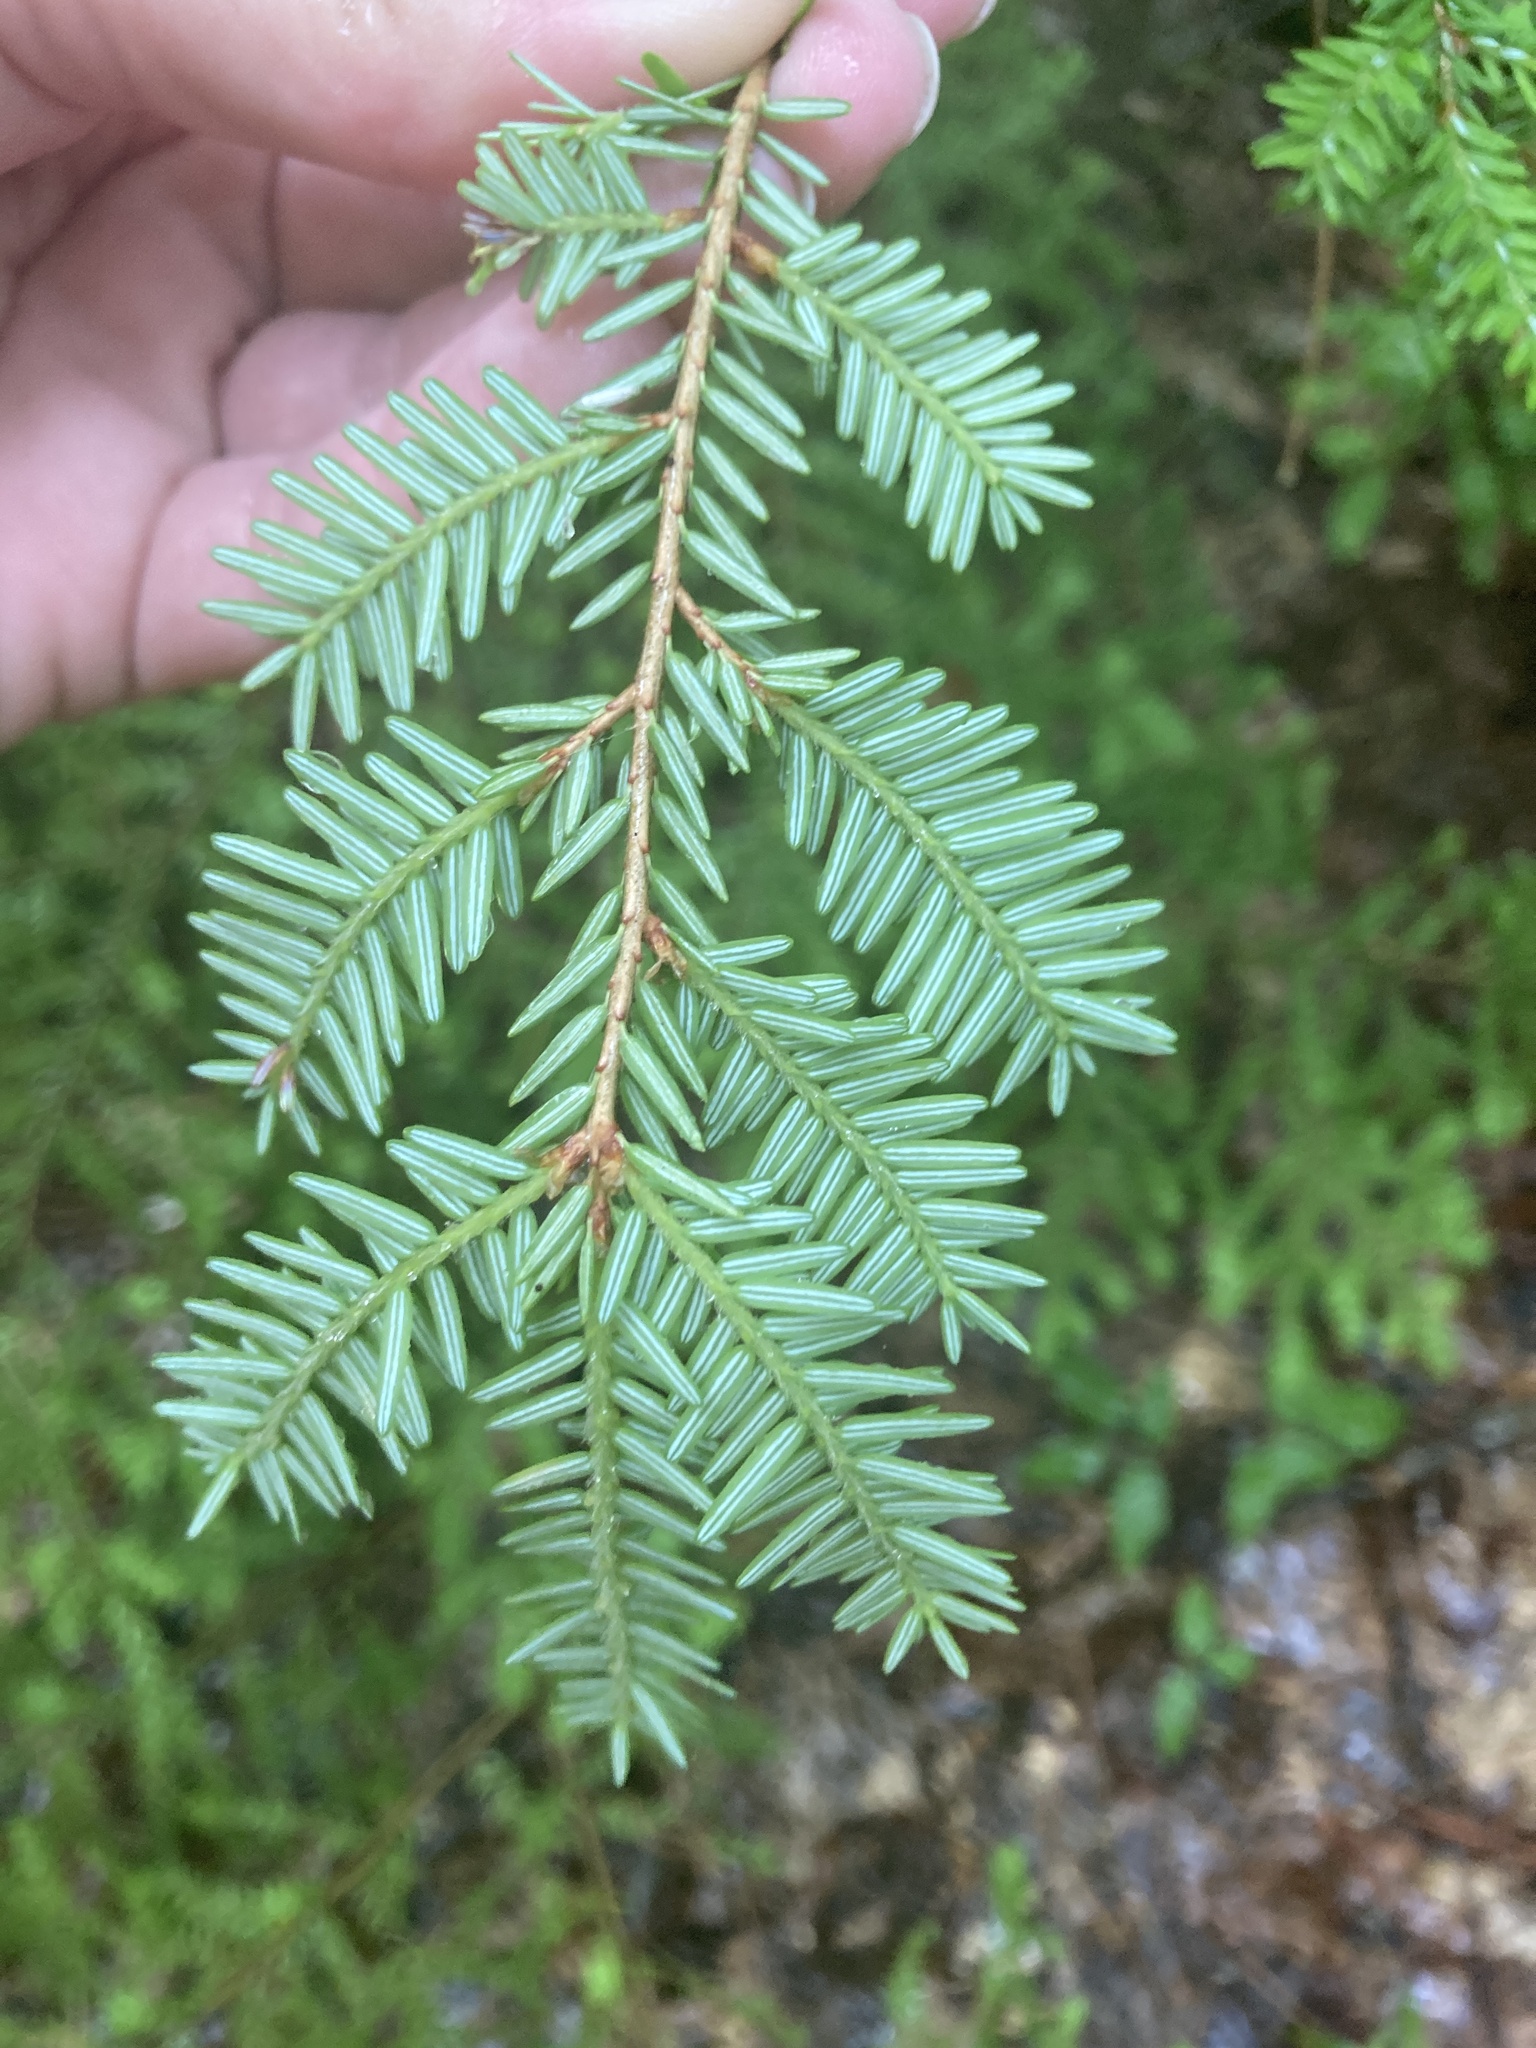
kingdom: Plantae
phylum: Tracheophyta
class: Pinopsida
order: Pinales
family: Pinaceae
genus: Tsuga
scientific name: Tsuga canadensis
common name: Eastern hemlock
